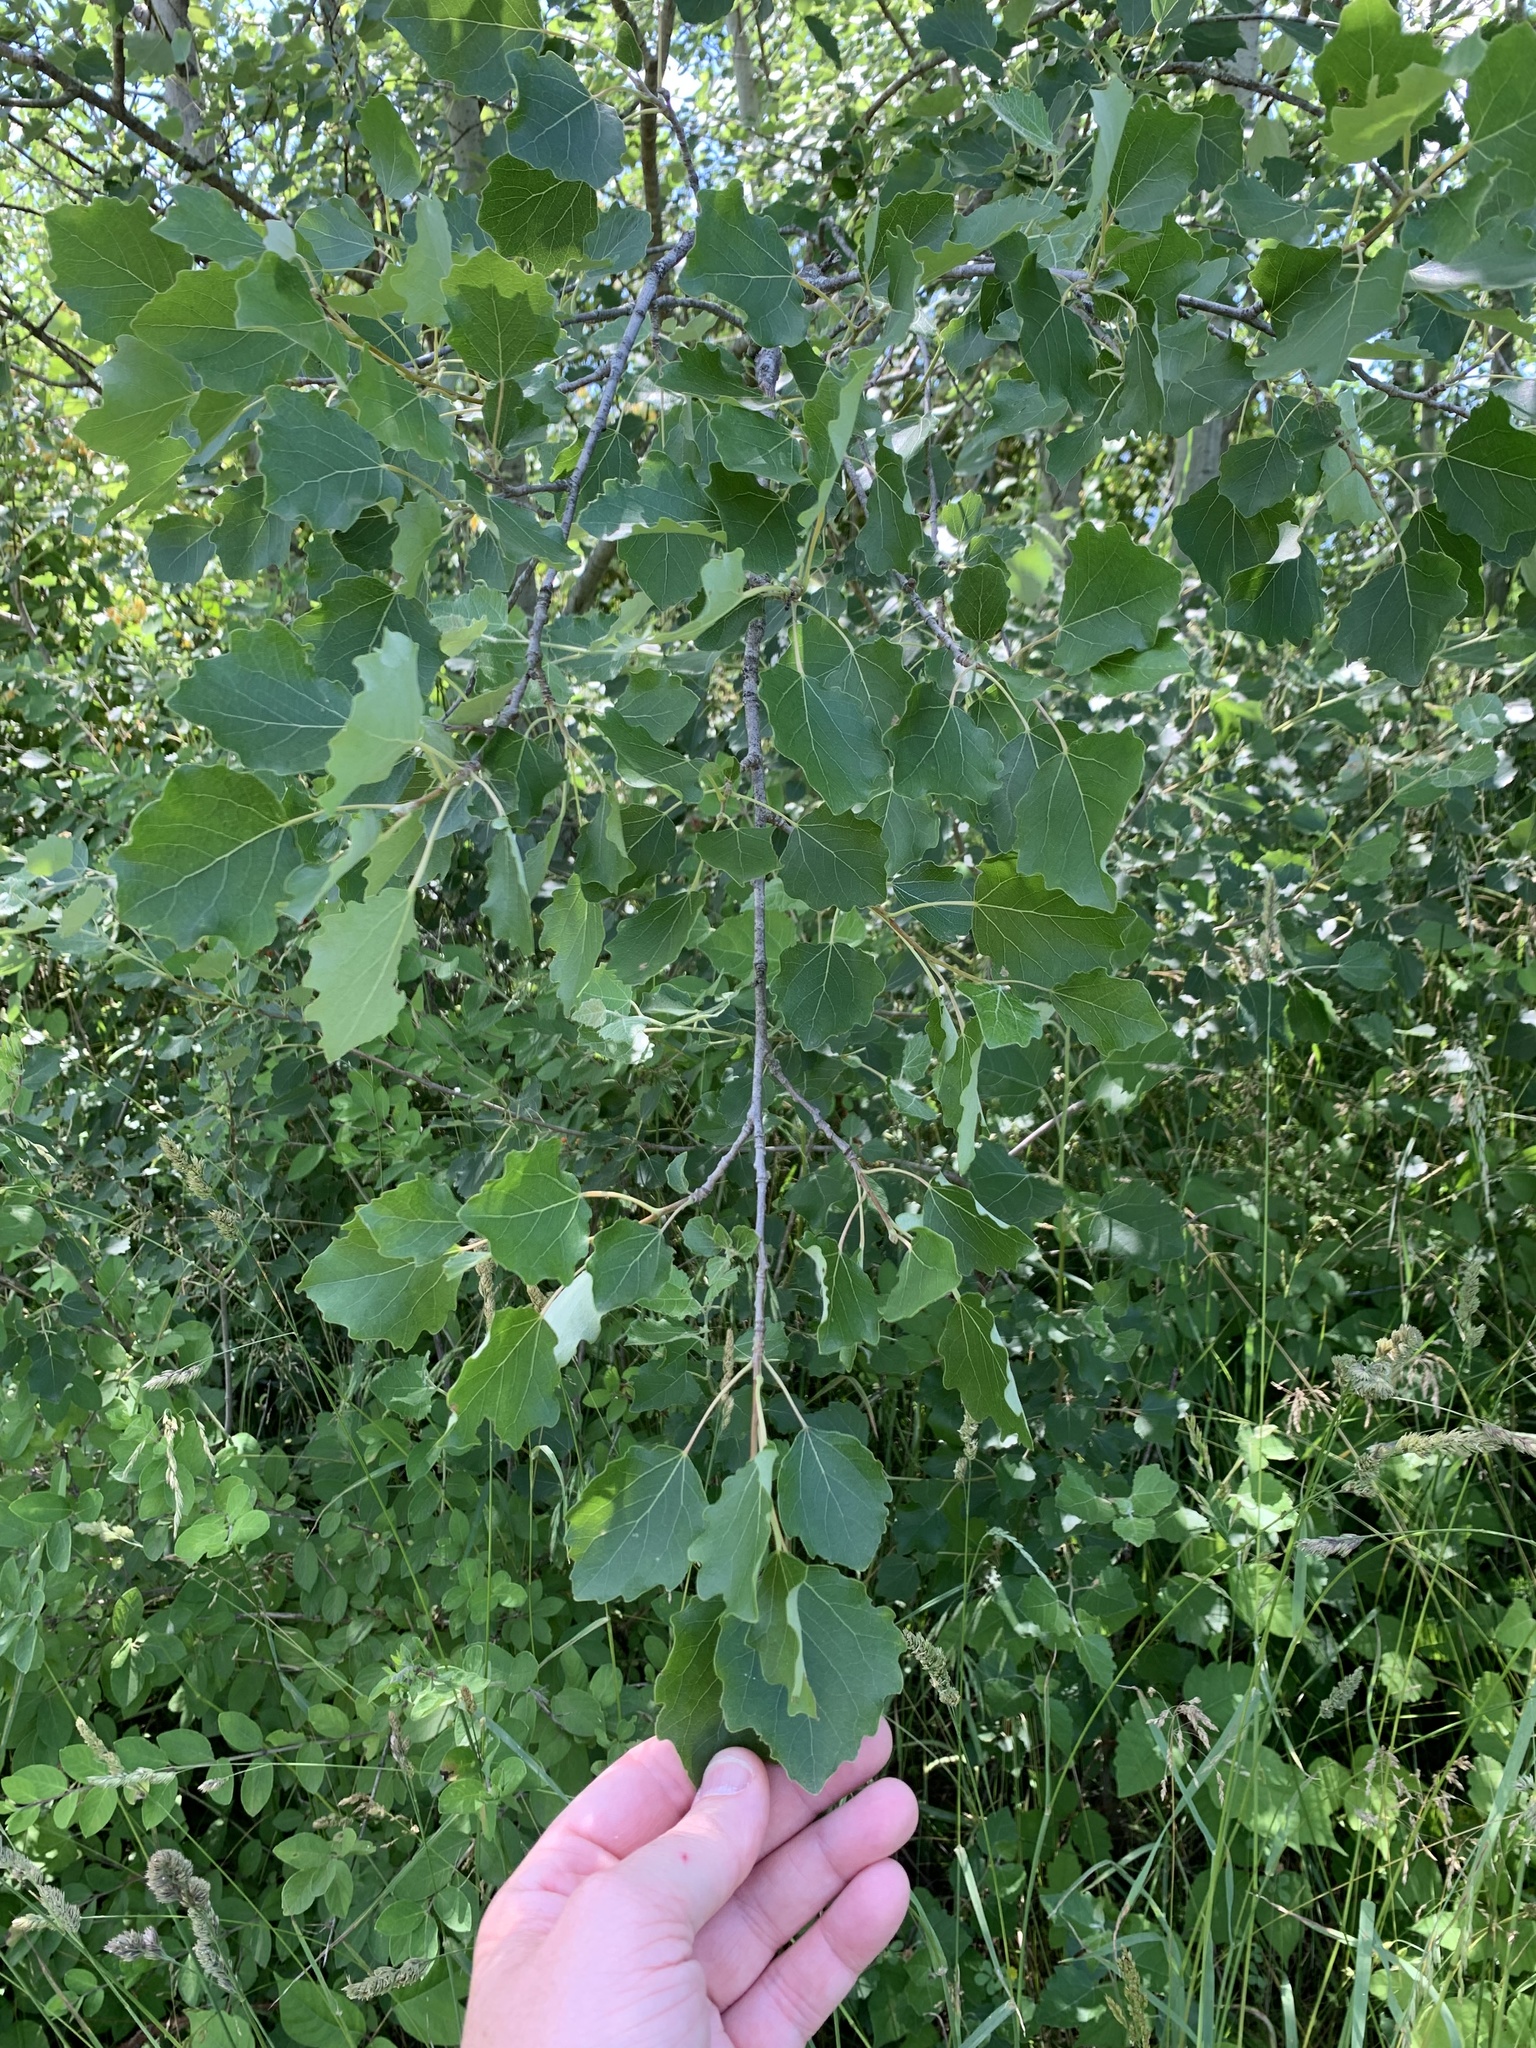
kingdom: Plantae
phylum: Tracheophyta
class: Magnoliopsida
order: Malpighiales
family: Salicaceae
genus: Populus
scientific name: Populus rouleauiana
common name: Rouleau's aspen
